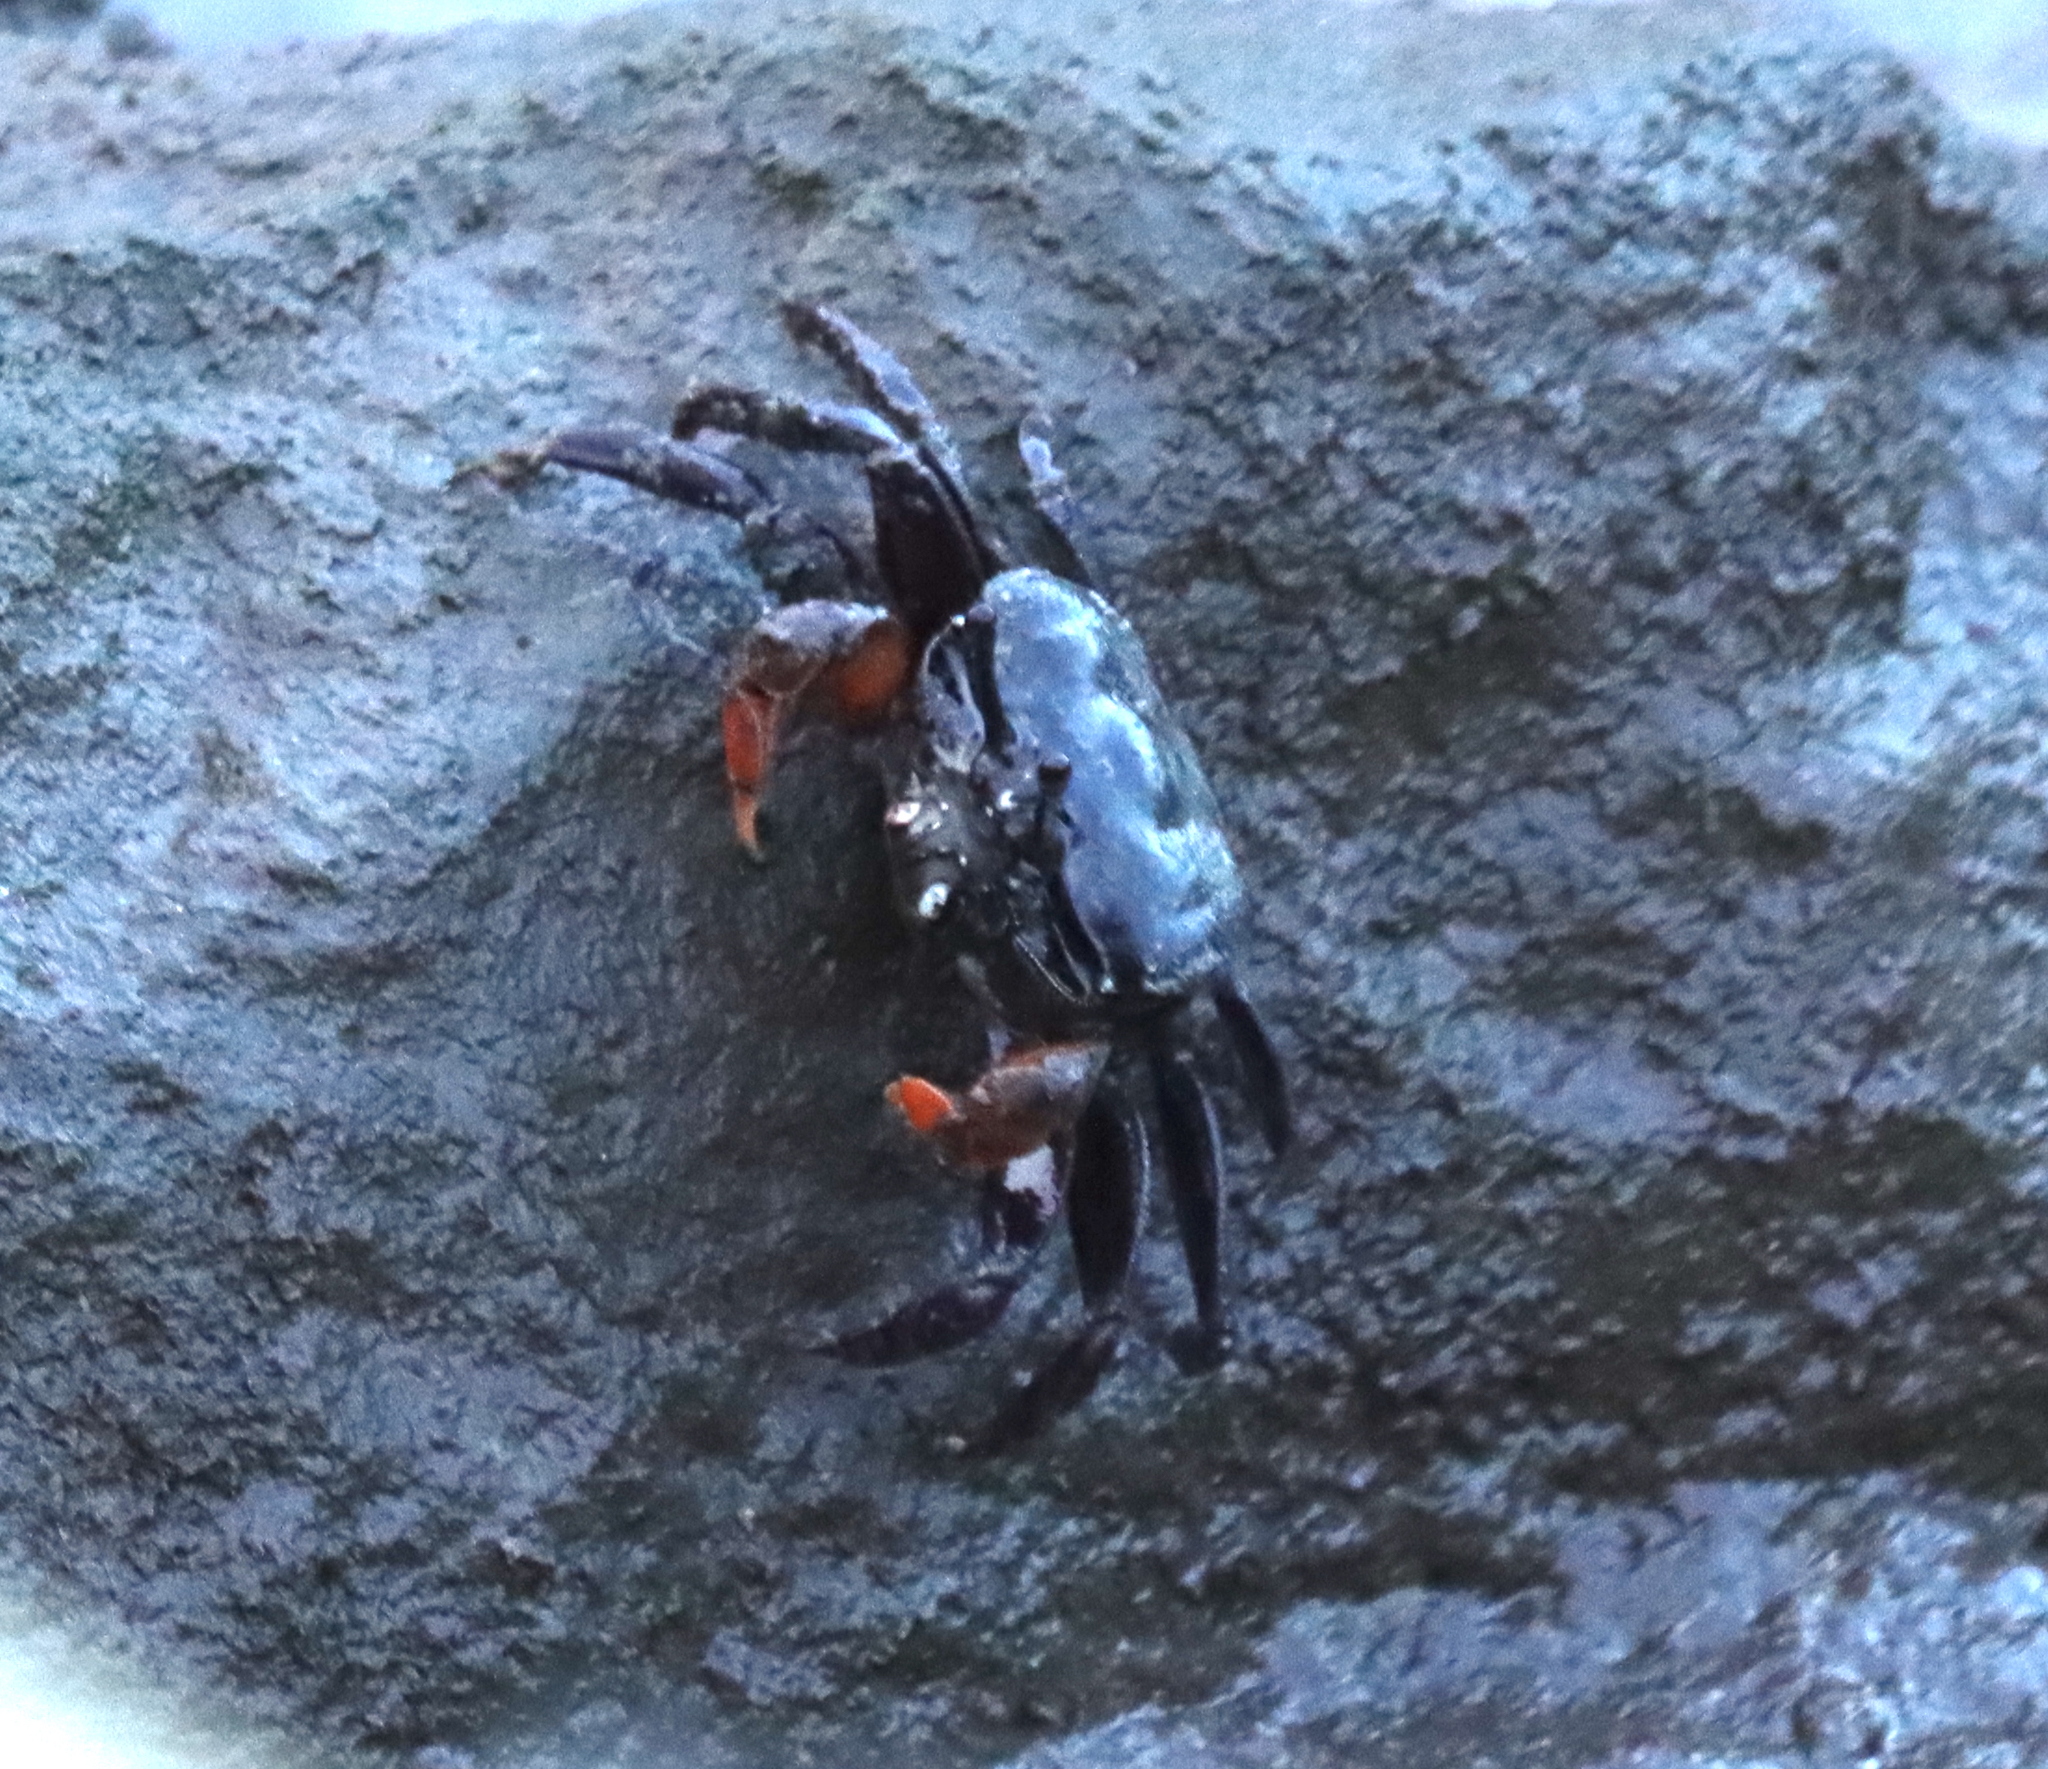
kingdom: Animalia
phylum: Arthropoda
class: Malacostraca
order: Decapoda
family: Heloeciidae
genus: Heloecius
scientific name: Heloecius cordiformis
